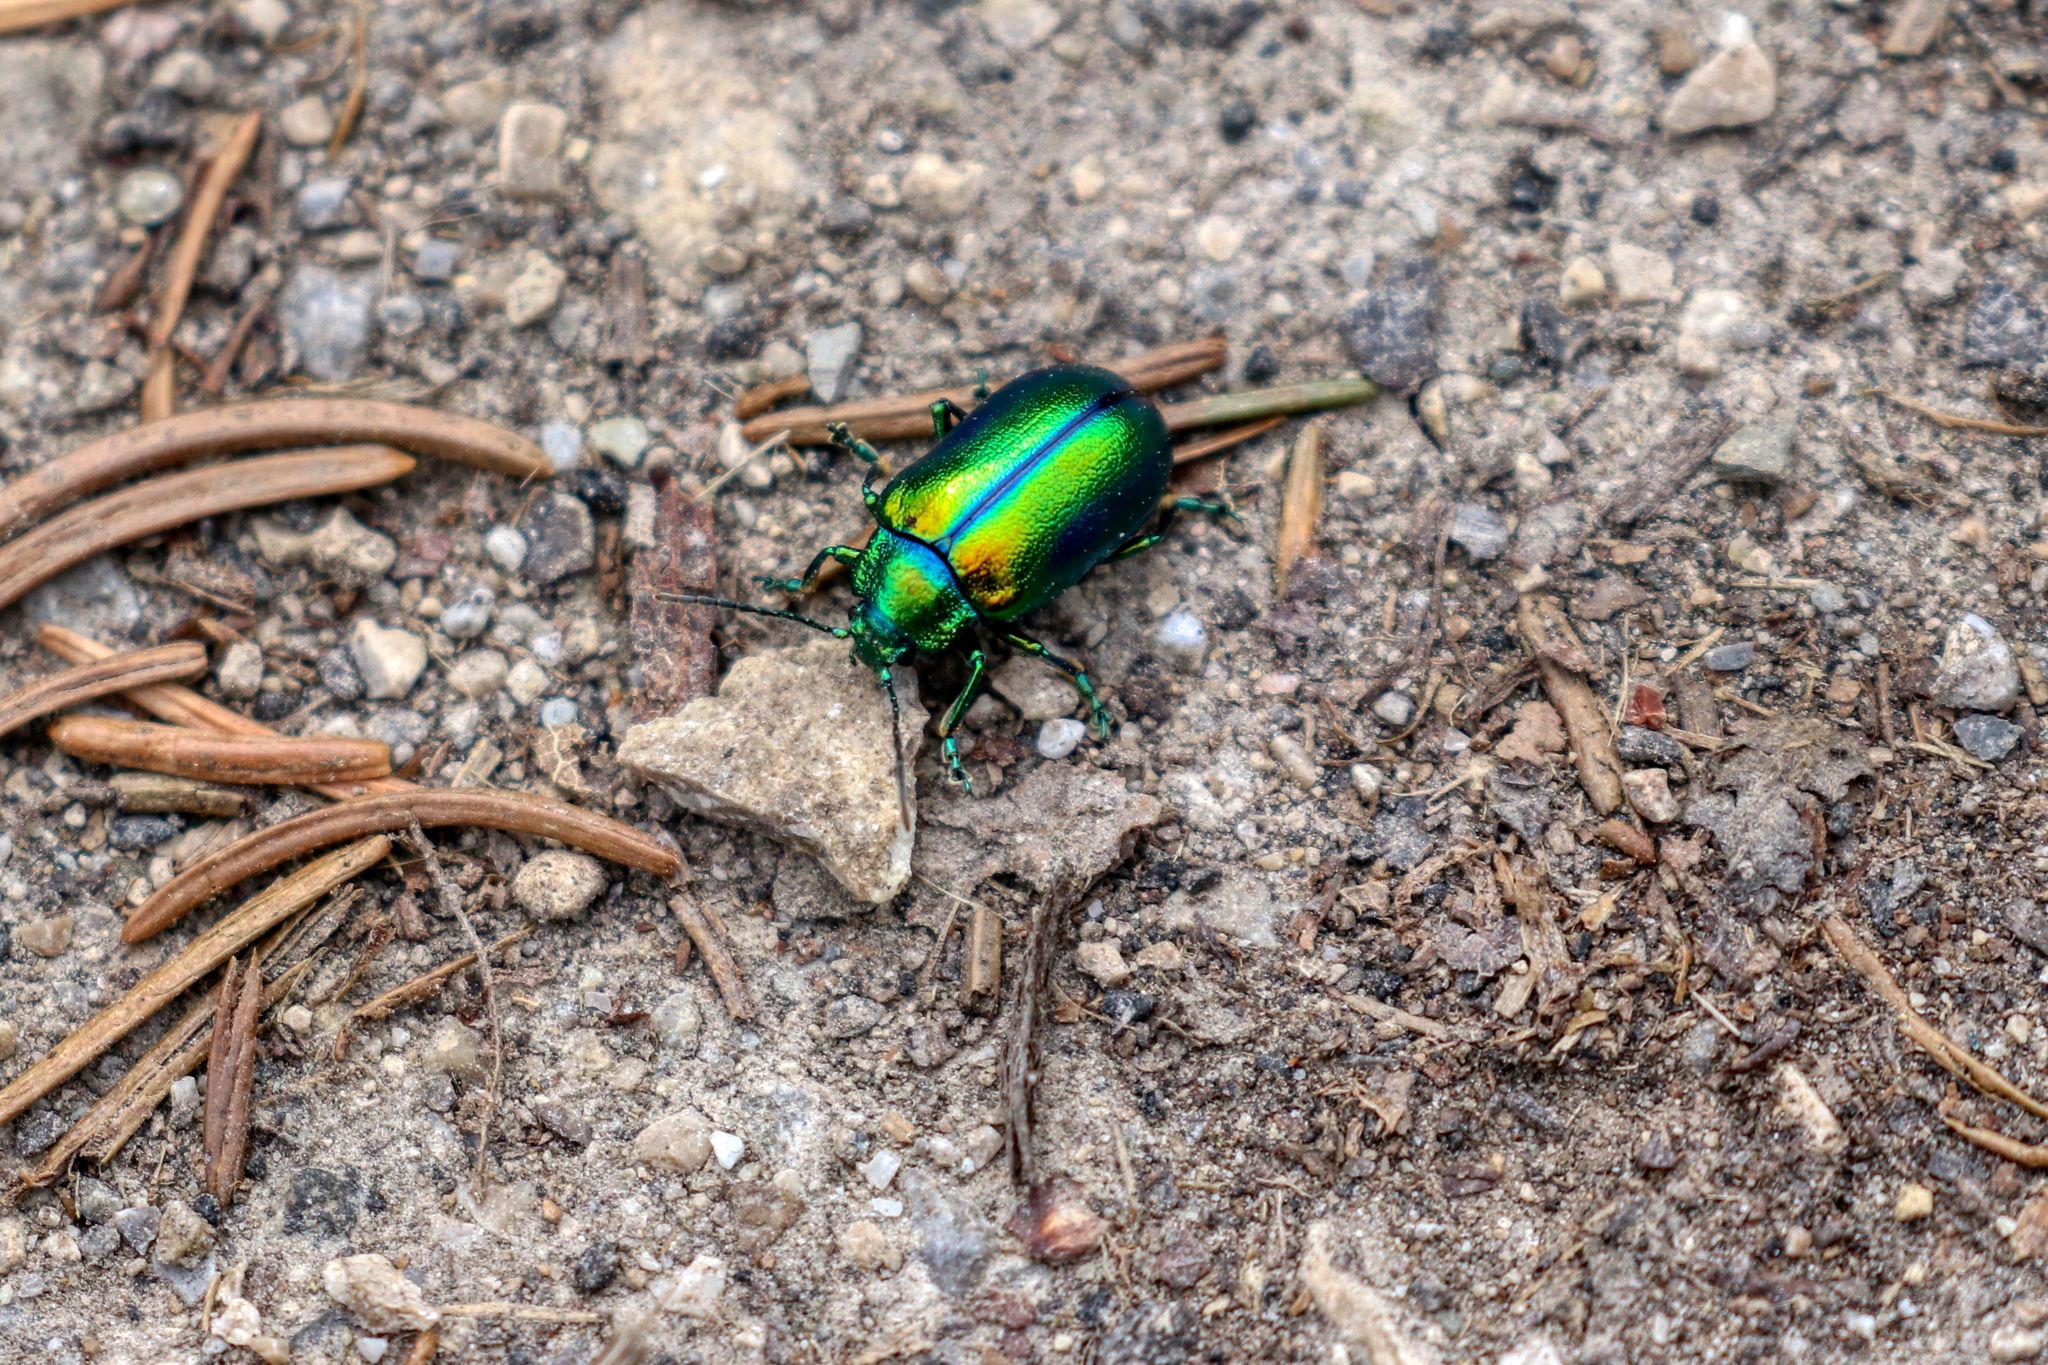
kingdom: Animalia
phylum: Arthropoda
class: Insecta
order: Coleoptera
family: Chrysomelidae
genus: Oreina
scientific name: Oreina
